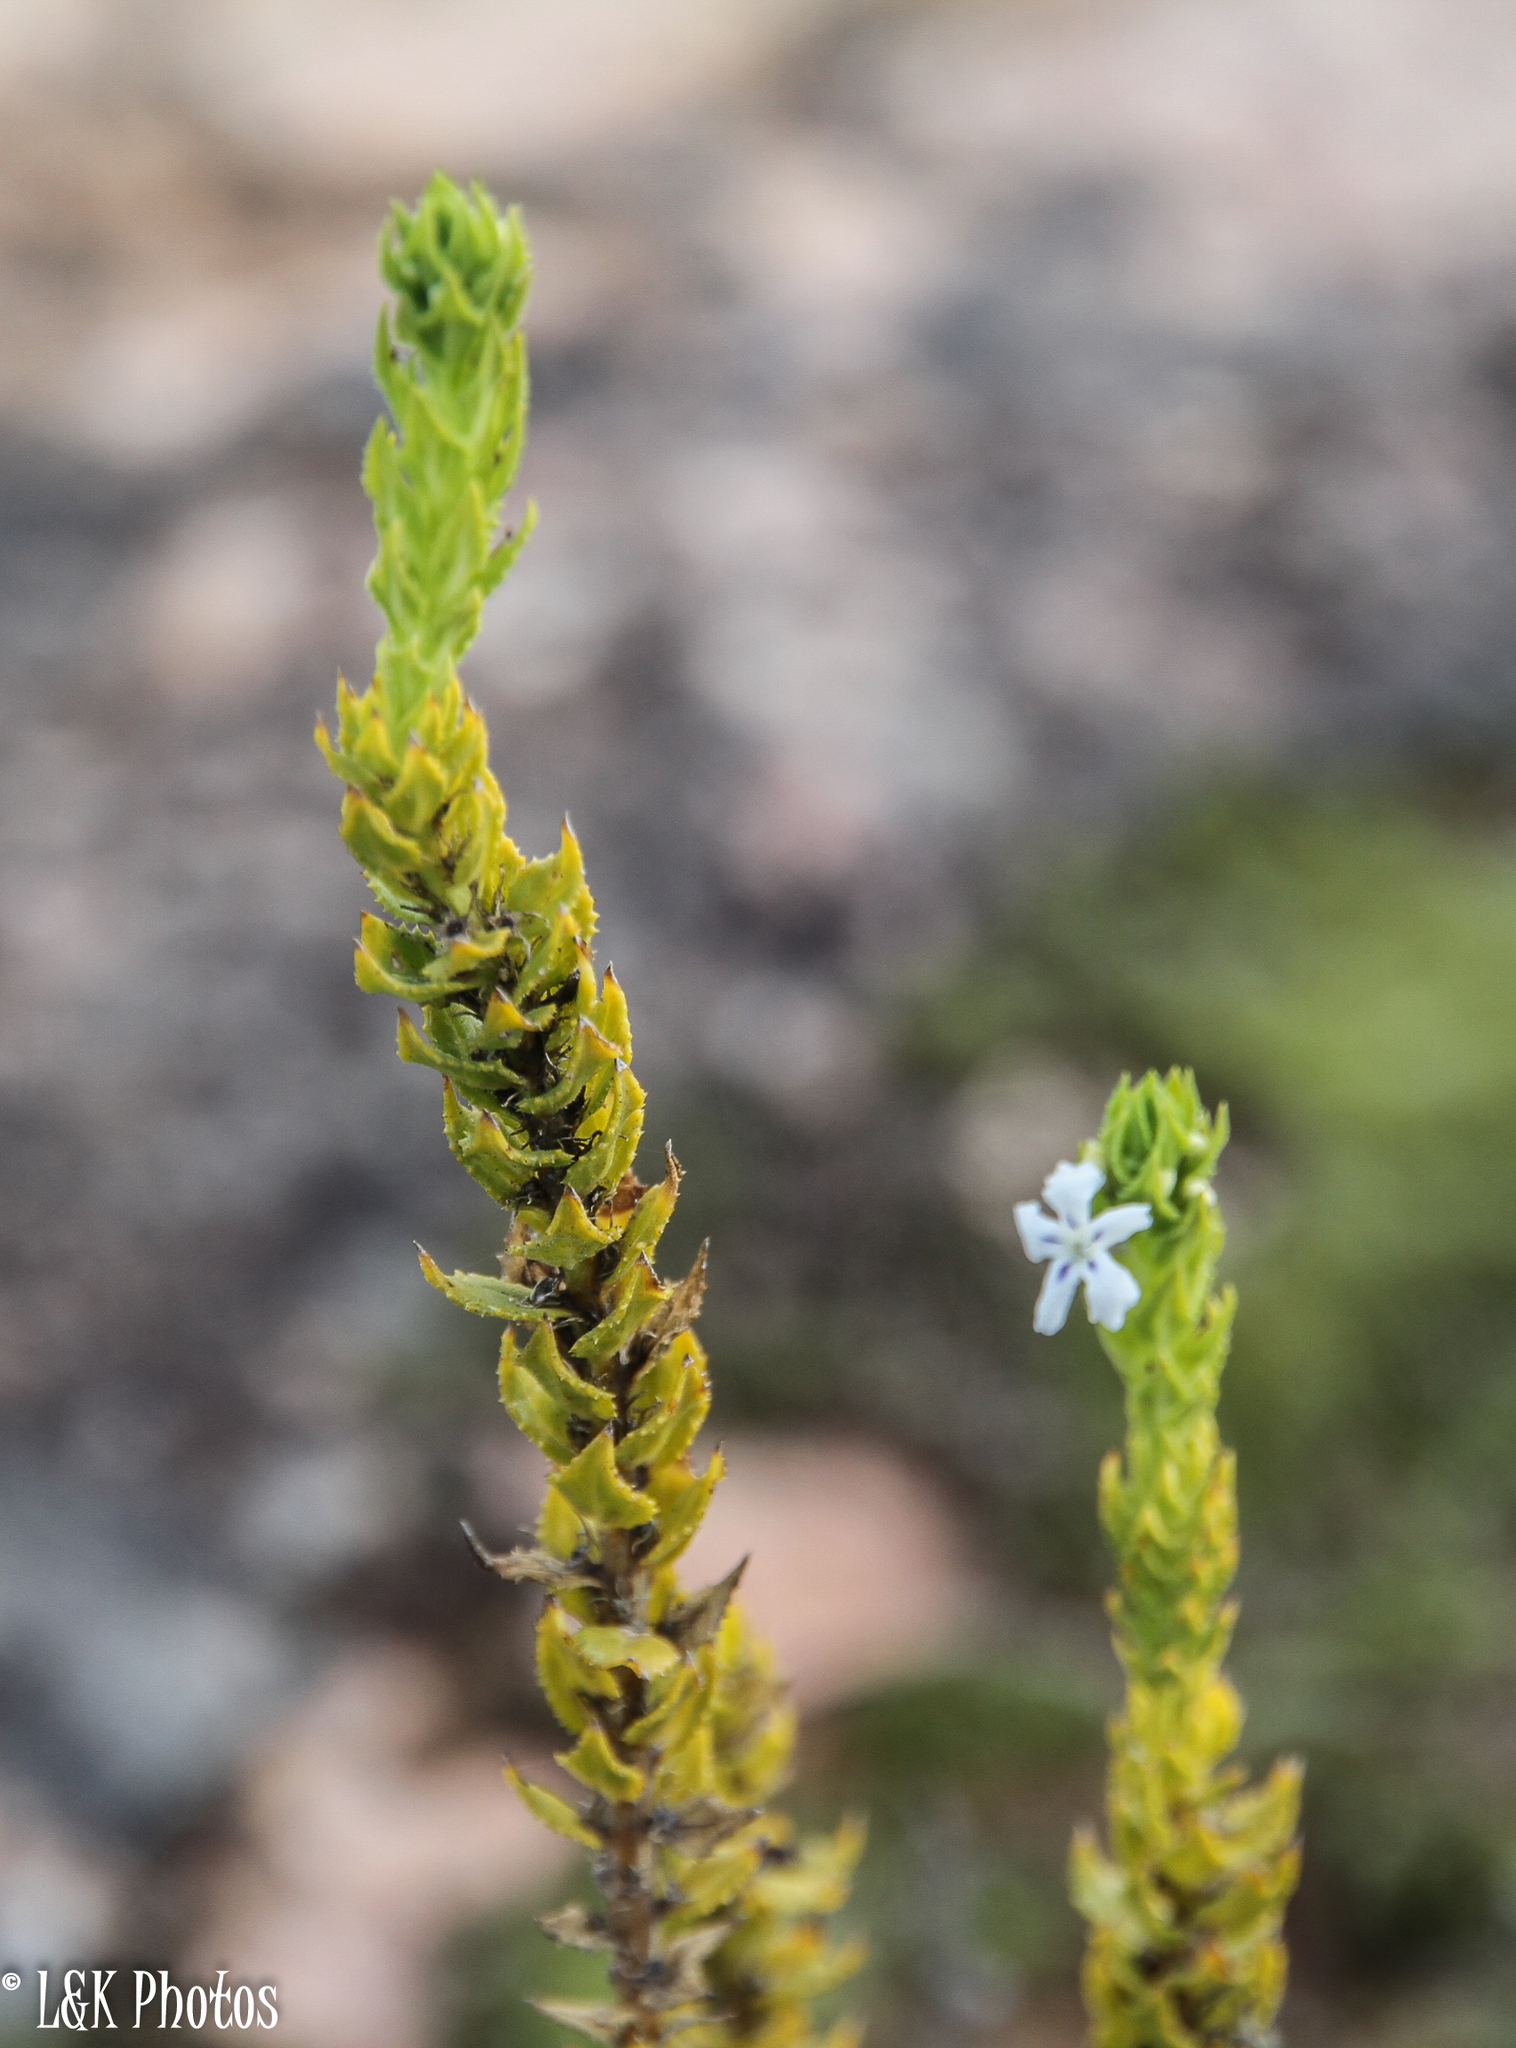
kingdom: Plantae
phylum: Tracheophyta
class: Magnoliopsida
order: Lamiales
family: Scrophulariaceae
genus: Oftia
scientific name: Oftia africana
